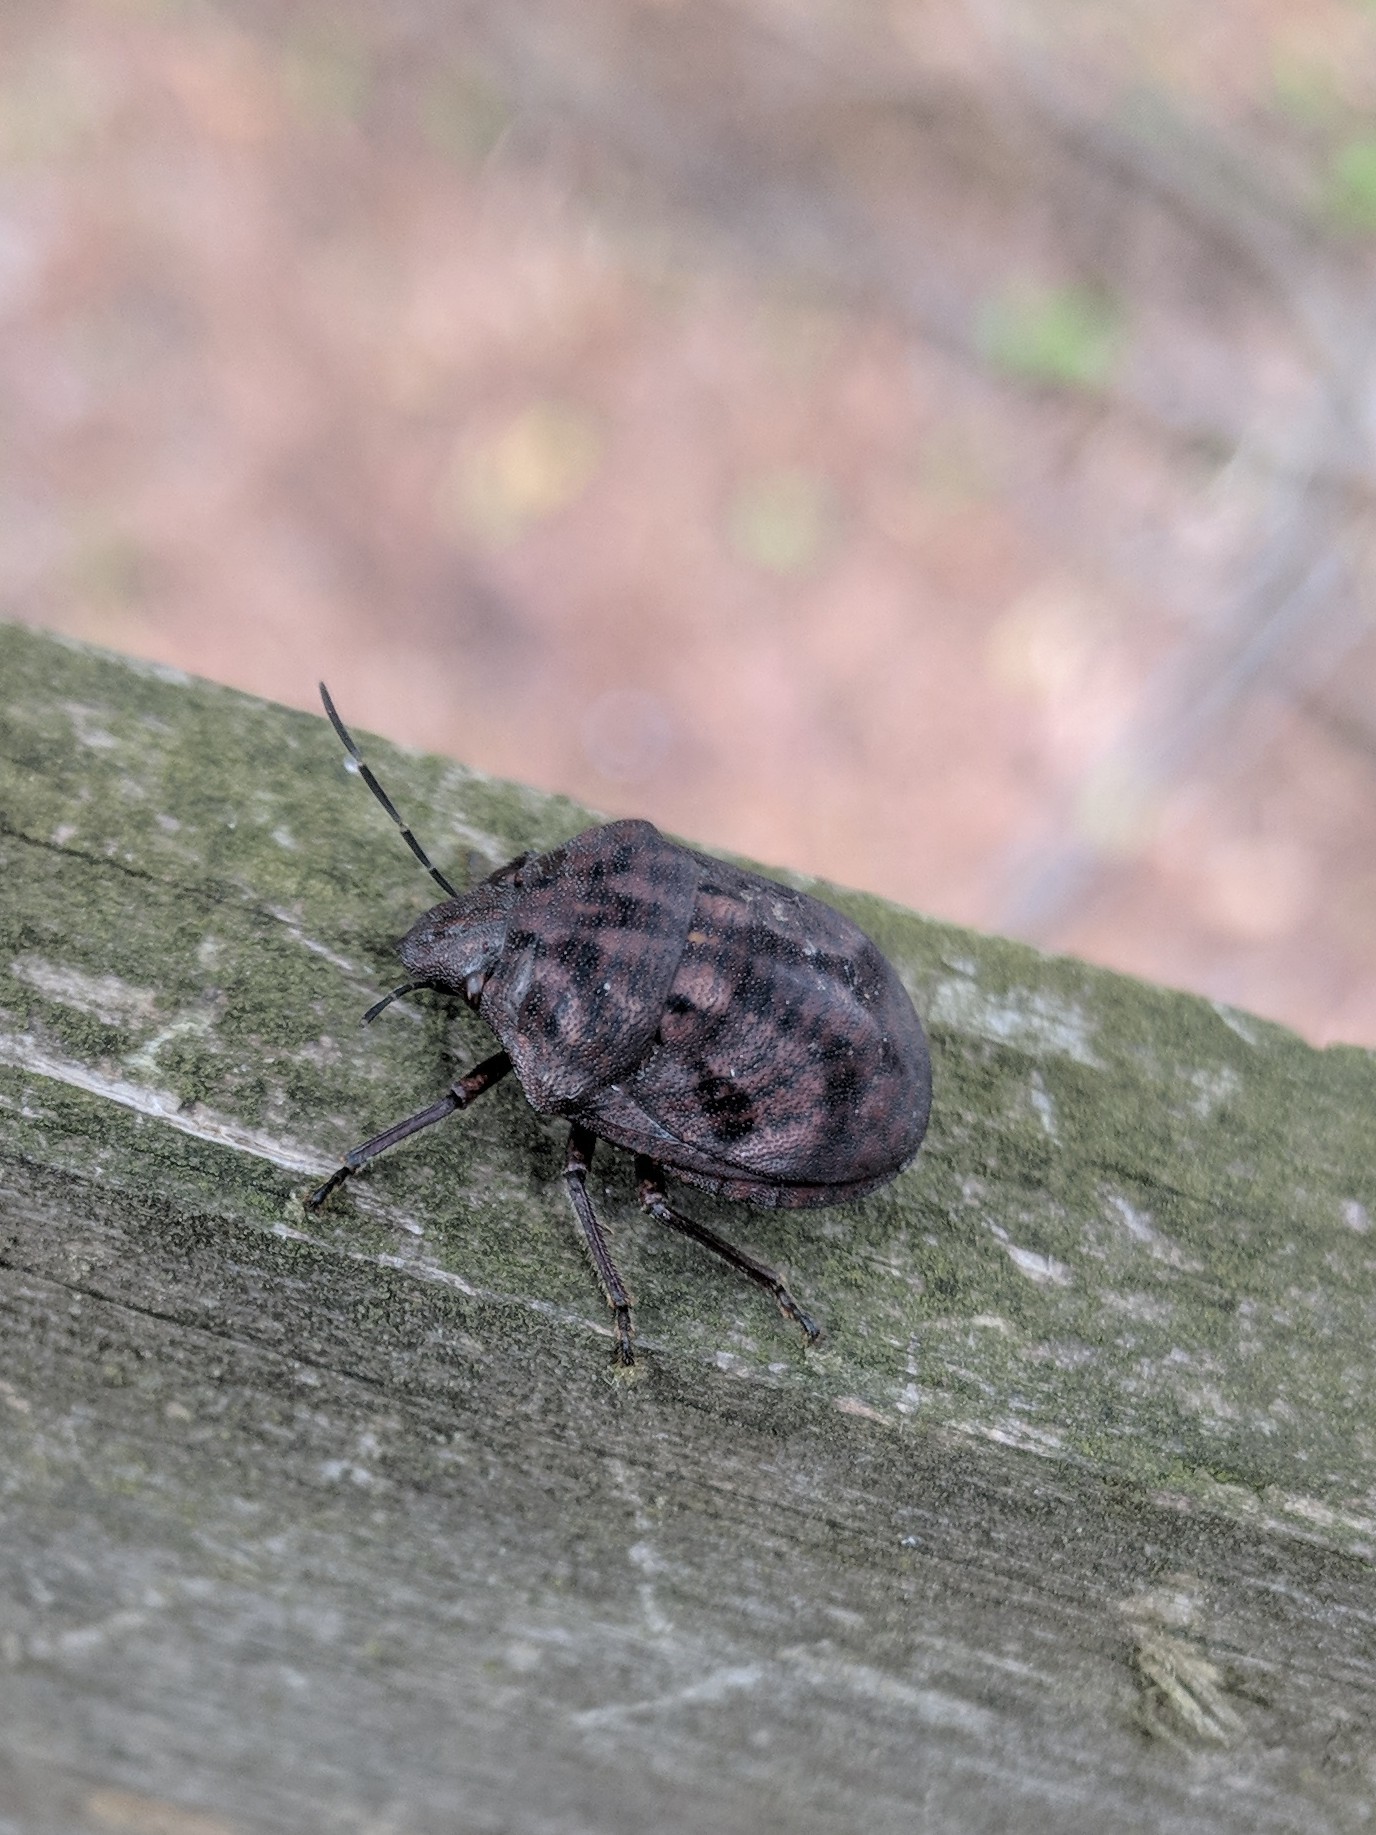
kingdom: Animalia
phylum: Arthropoda
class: Insecta
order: Hemiptera
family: Scutelleridae
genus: Tetyra
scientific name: Tetyra bipunctata
